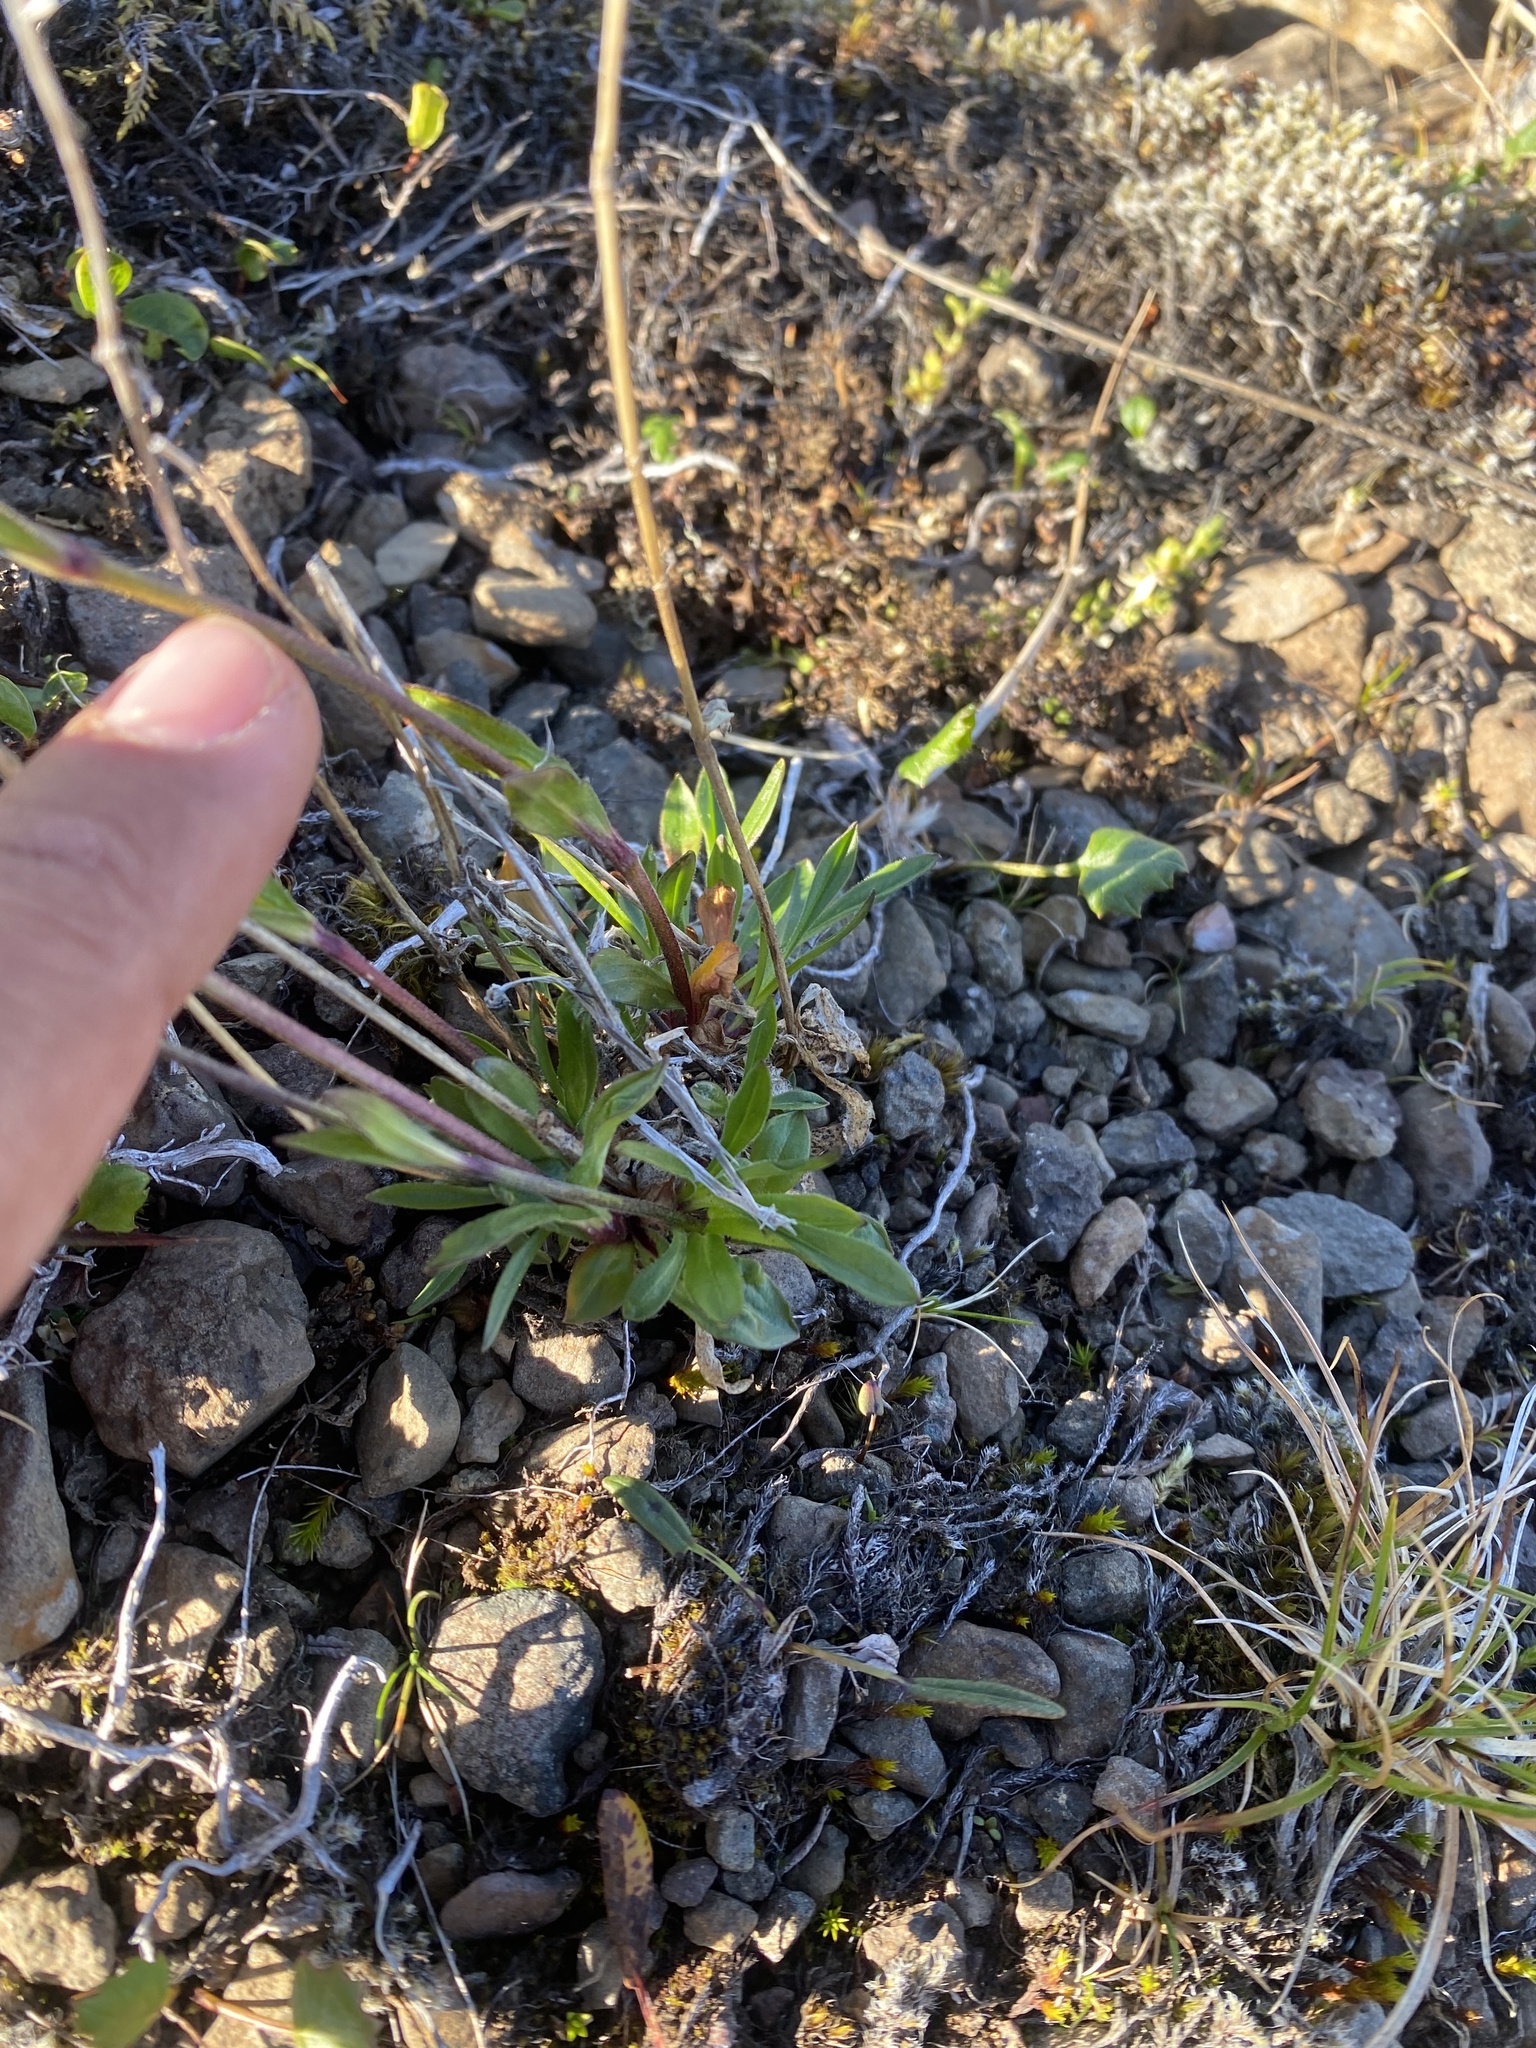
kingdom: Plantae
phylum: Tracheophyta
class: Magnoliopsida
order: Caryophyllales
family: Caryophyllaceae
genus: Silene
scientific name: Silene wahlbergella
